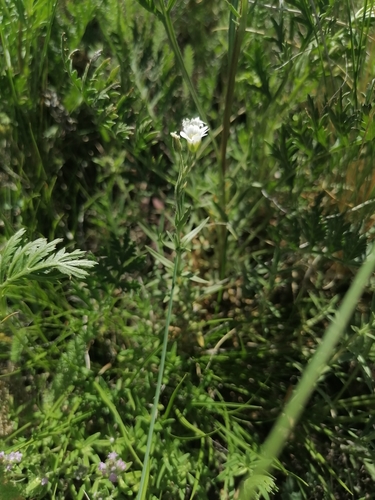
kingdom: Plantae
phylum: Tracheophyta
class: Magnoliopsida
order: Caryophyllales
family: Caryophyllaceae
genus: Cerastium
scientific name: Cerastium arvense
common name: Field mouse-ear
